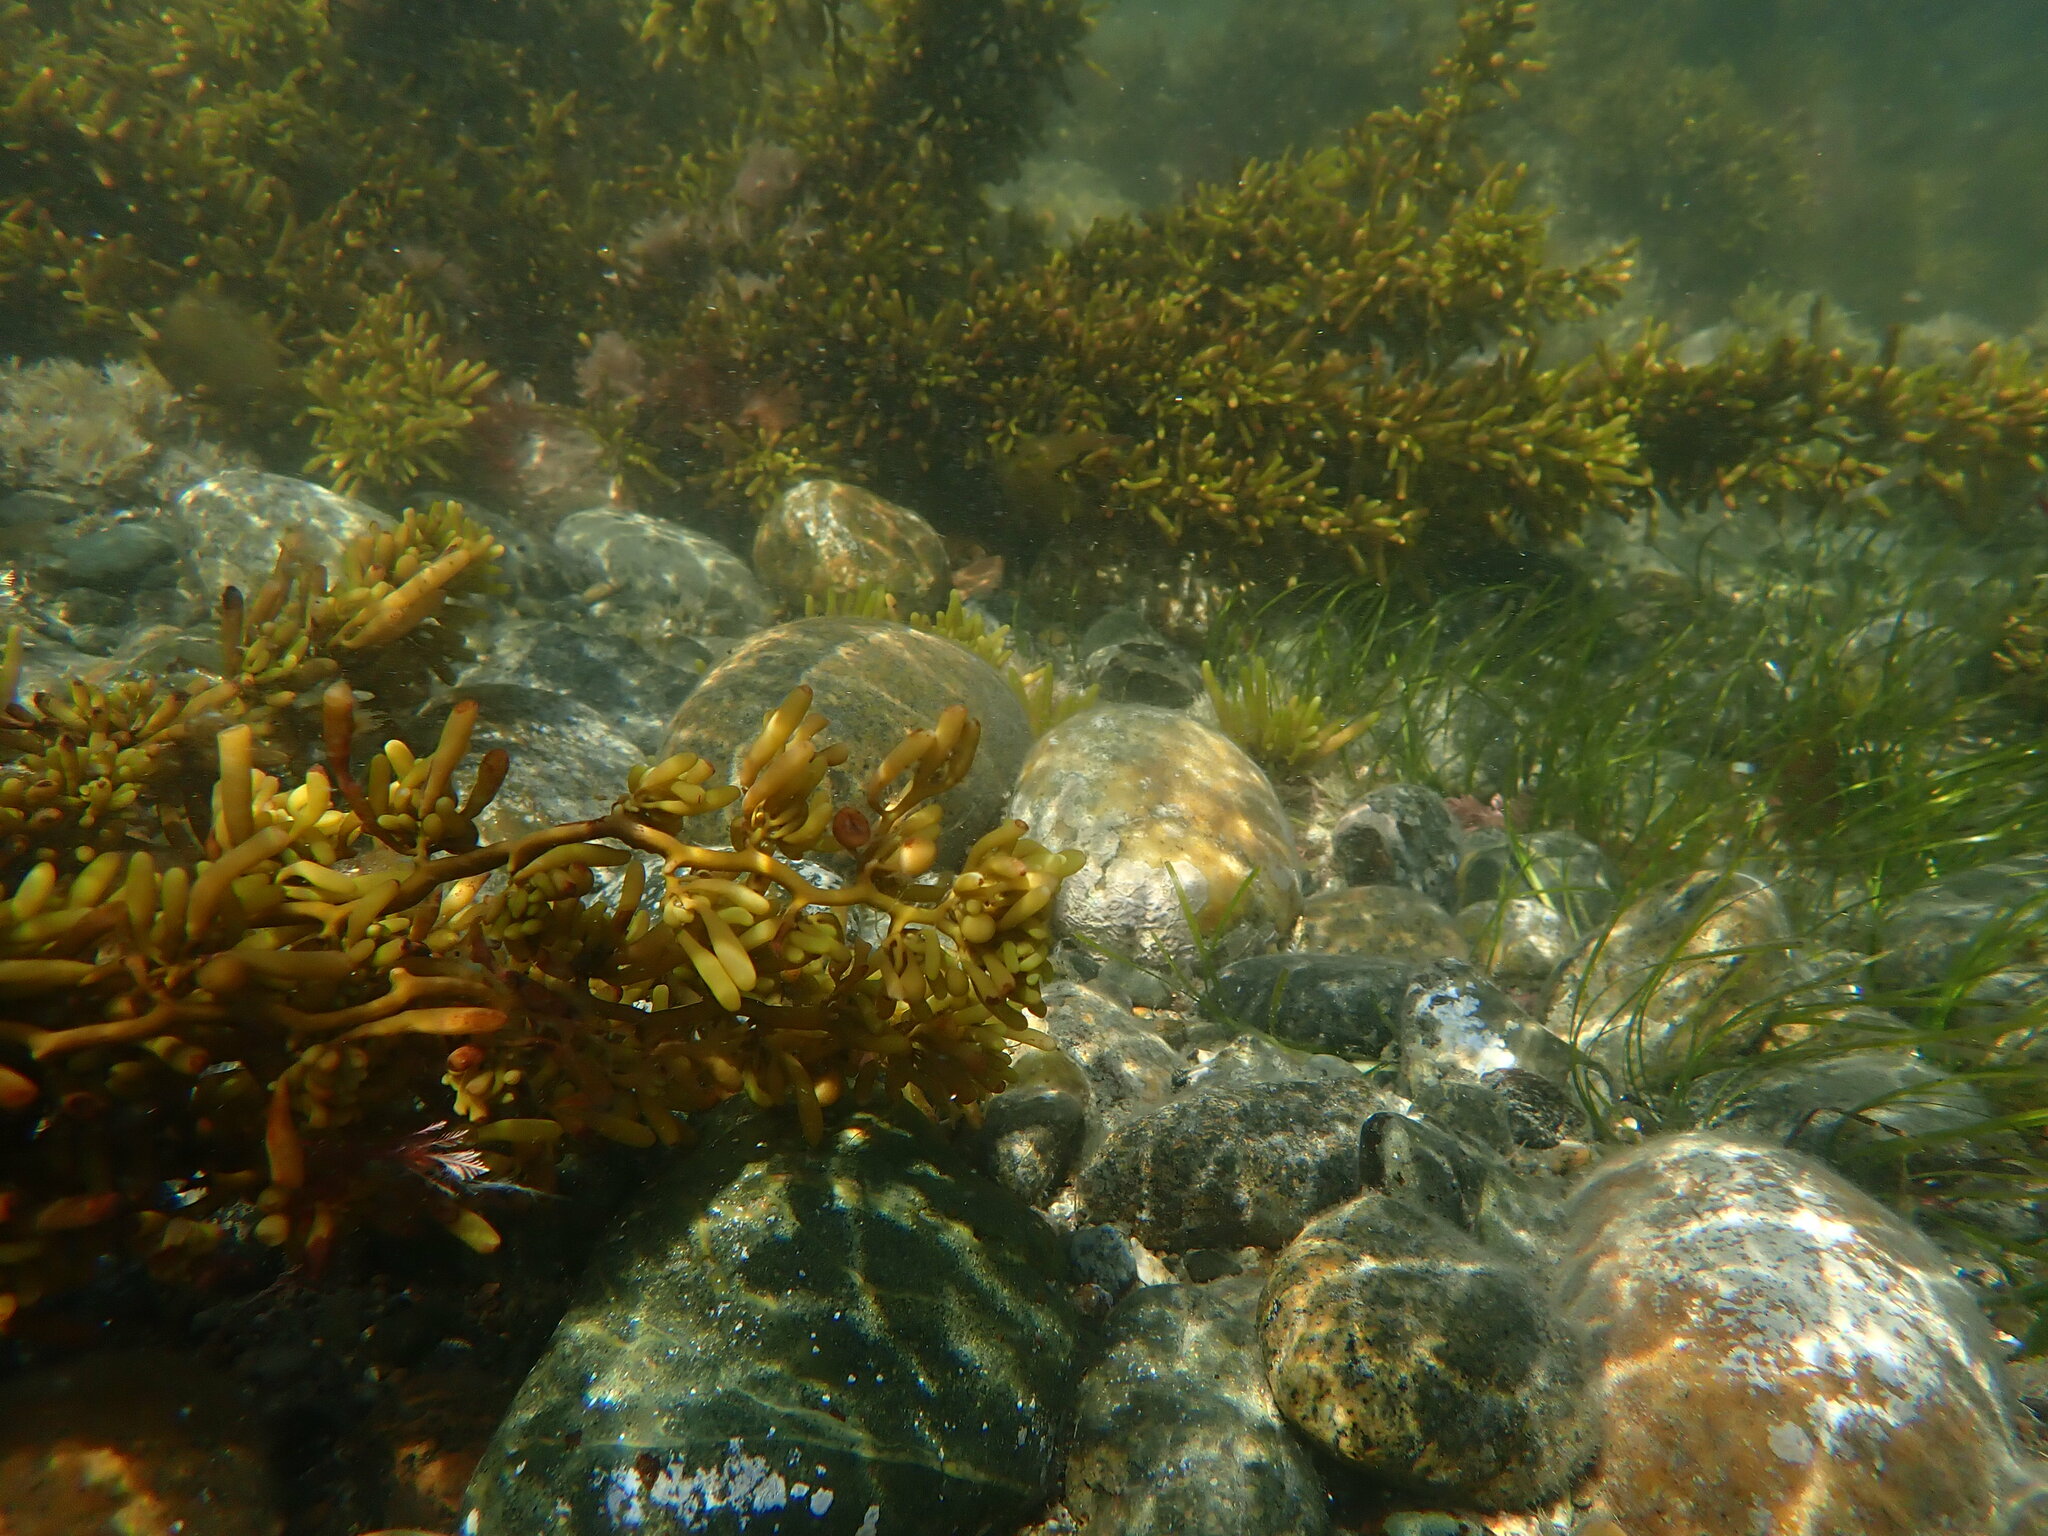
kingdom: Chromista
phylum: Ochrophyta
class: Phaeophyceae
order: Fucales
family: Sargassaceae
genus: Cystophora
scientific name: Cystophora torulosa
